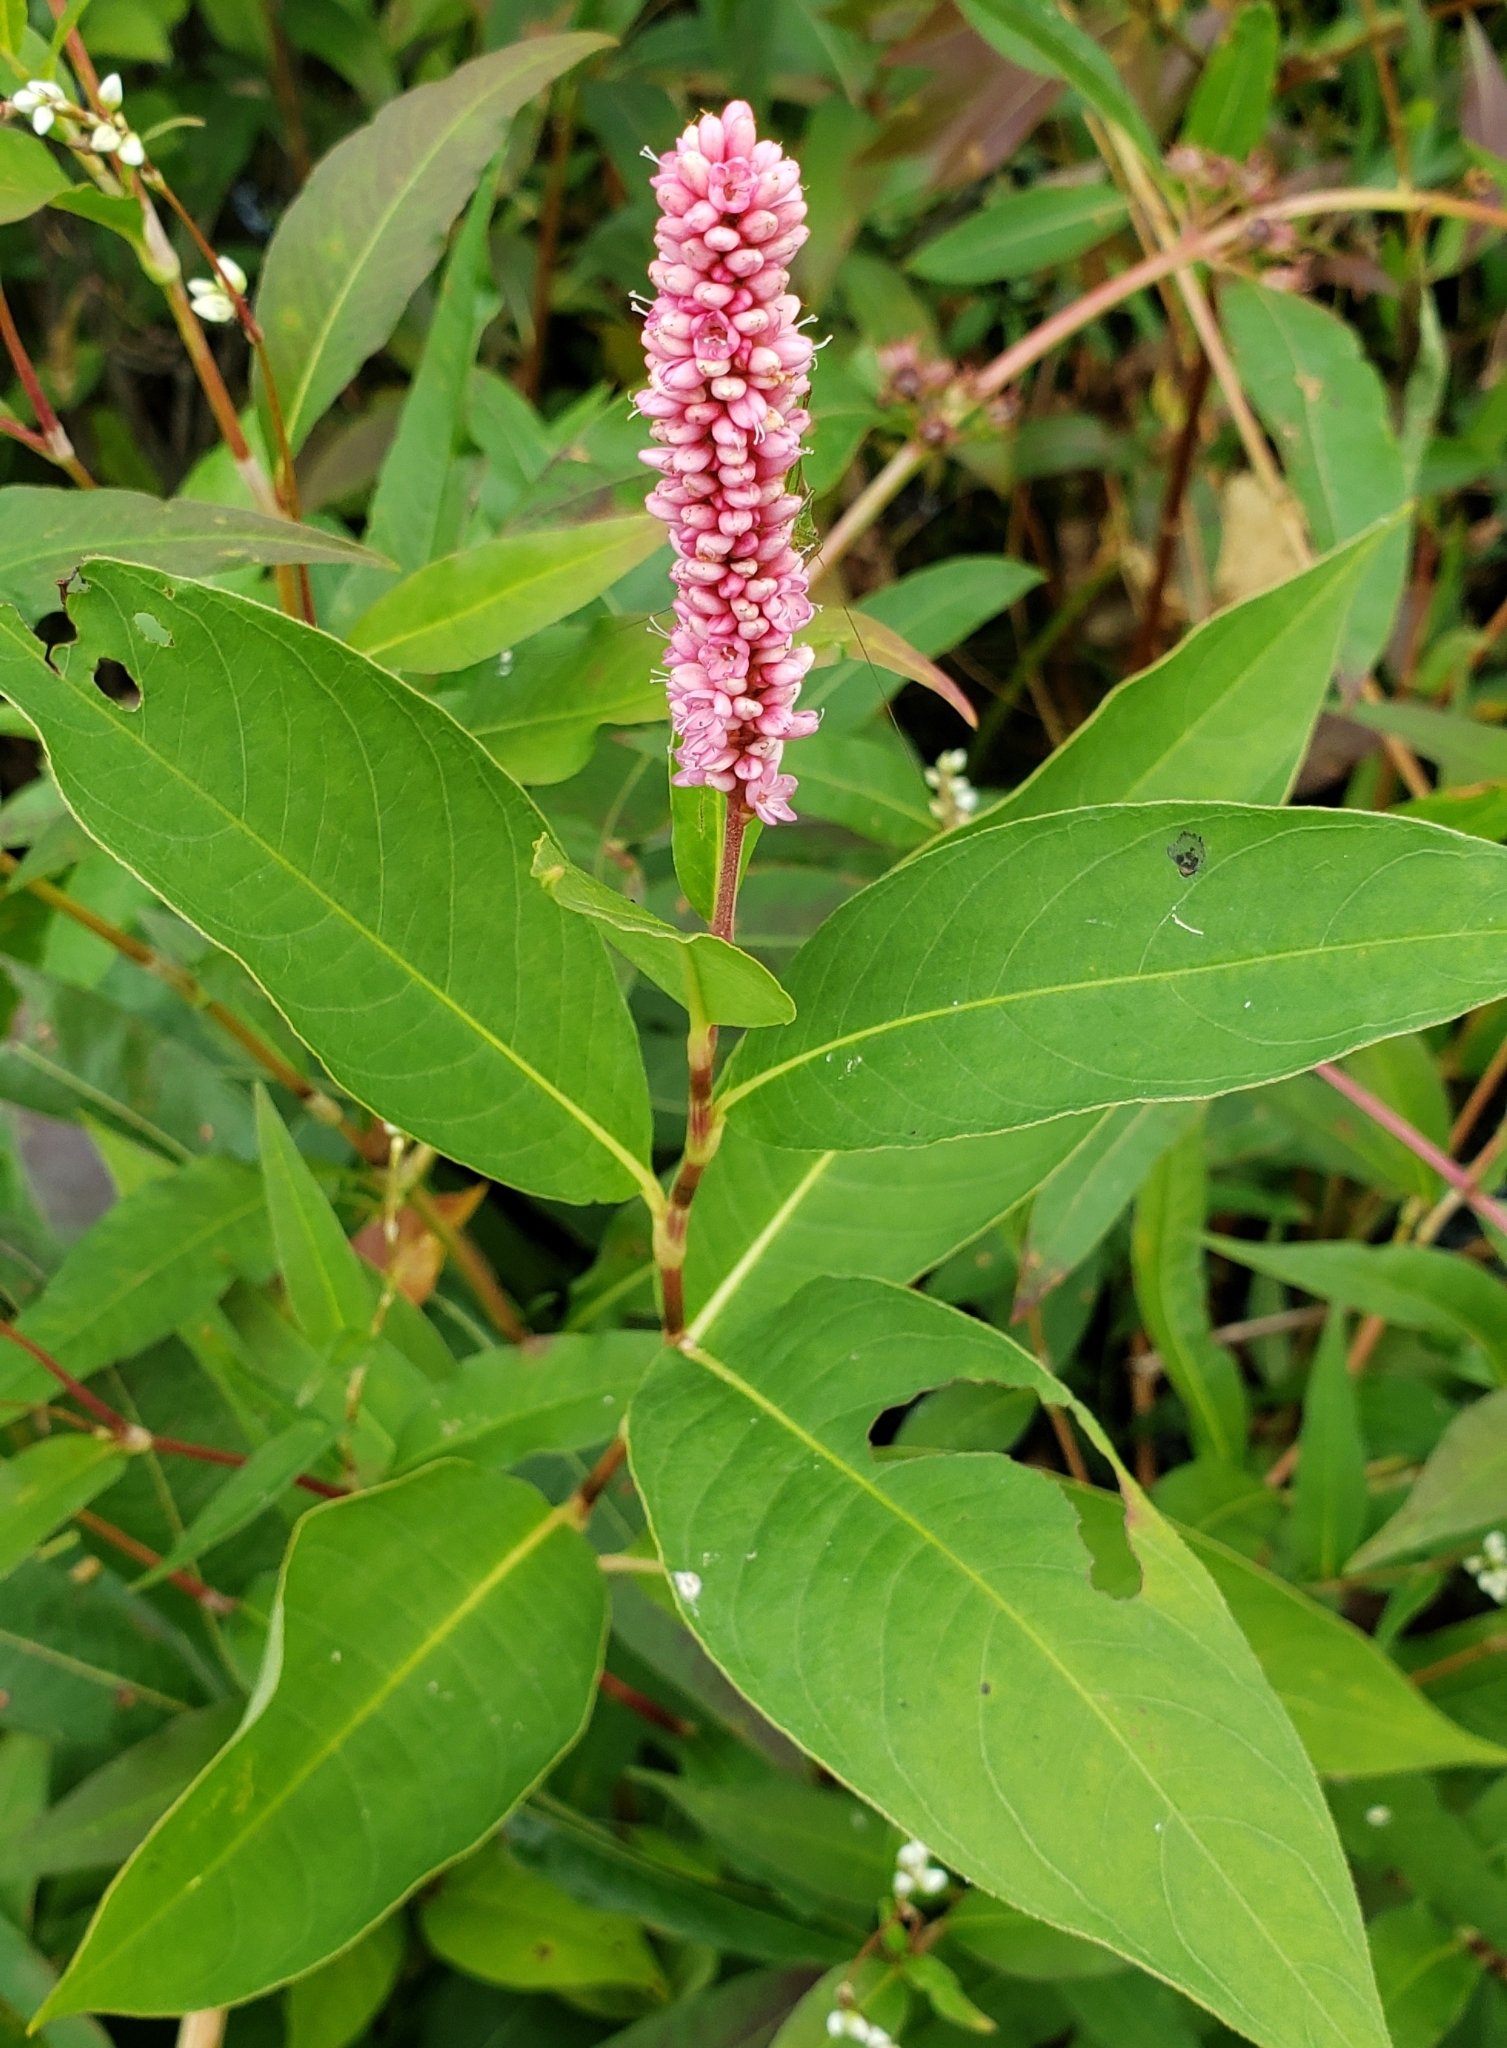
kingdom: Plantae
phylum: Tracheophyta
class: Magnoliopsida
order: Caryophyllales
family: Polygonaceae
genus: Persicaria
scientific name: Persicaria amphibia
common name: Amphibious bistort
